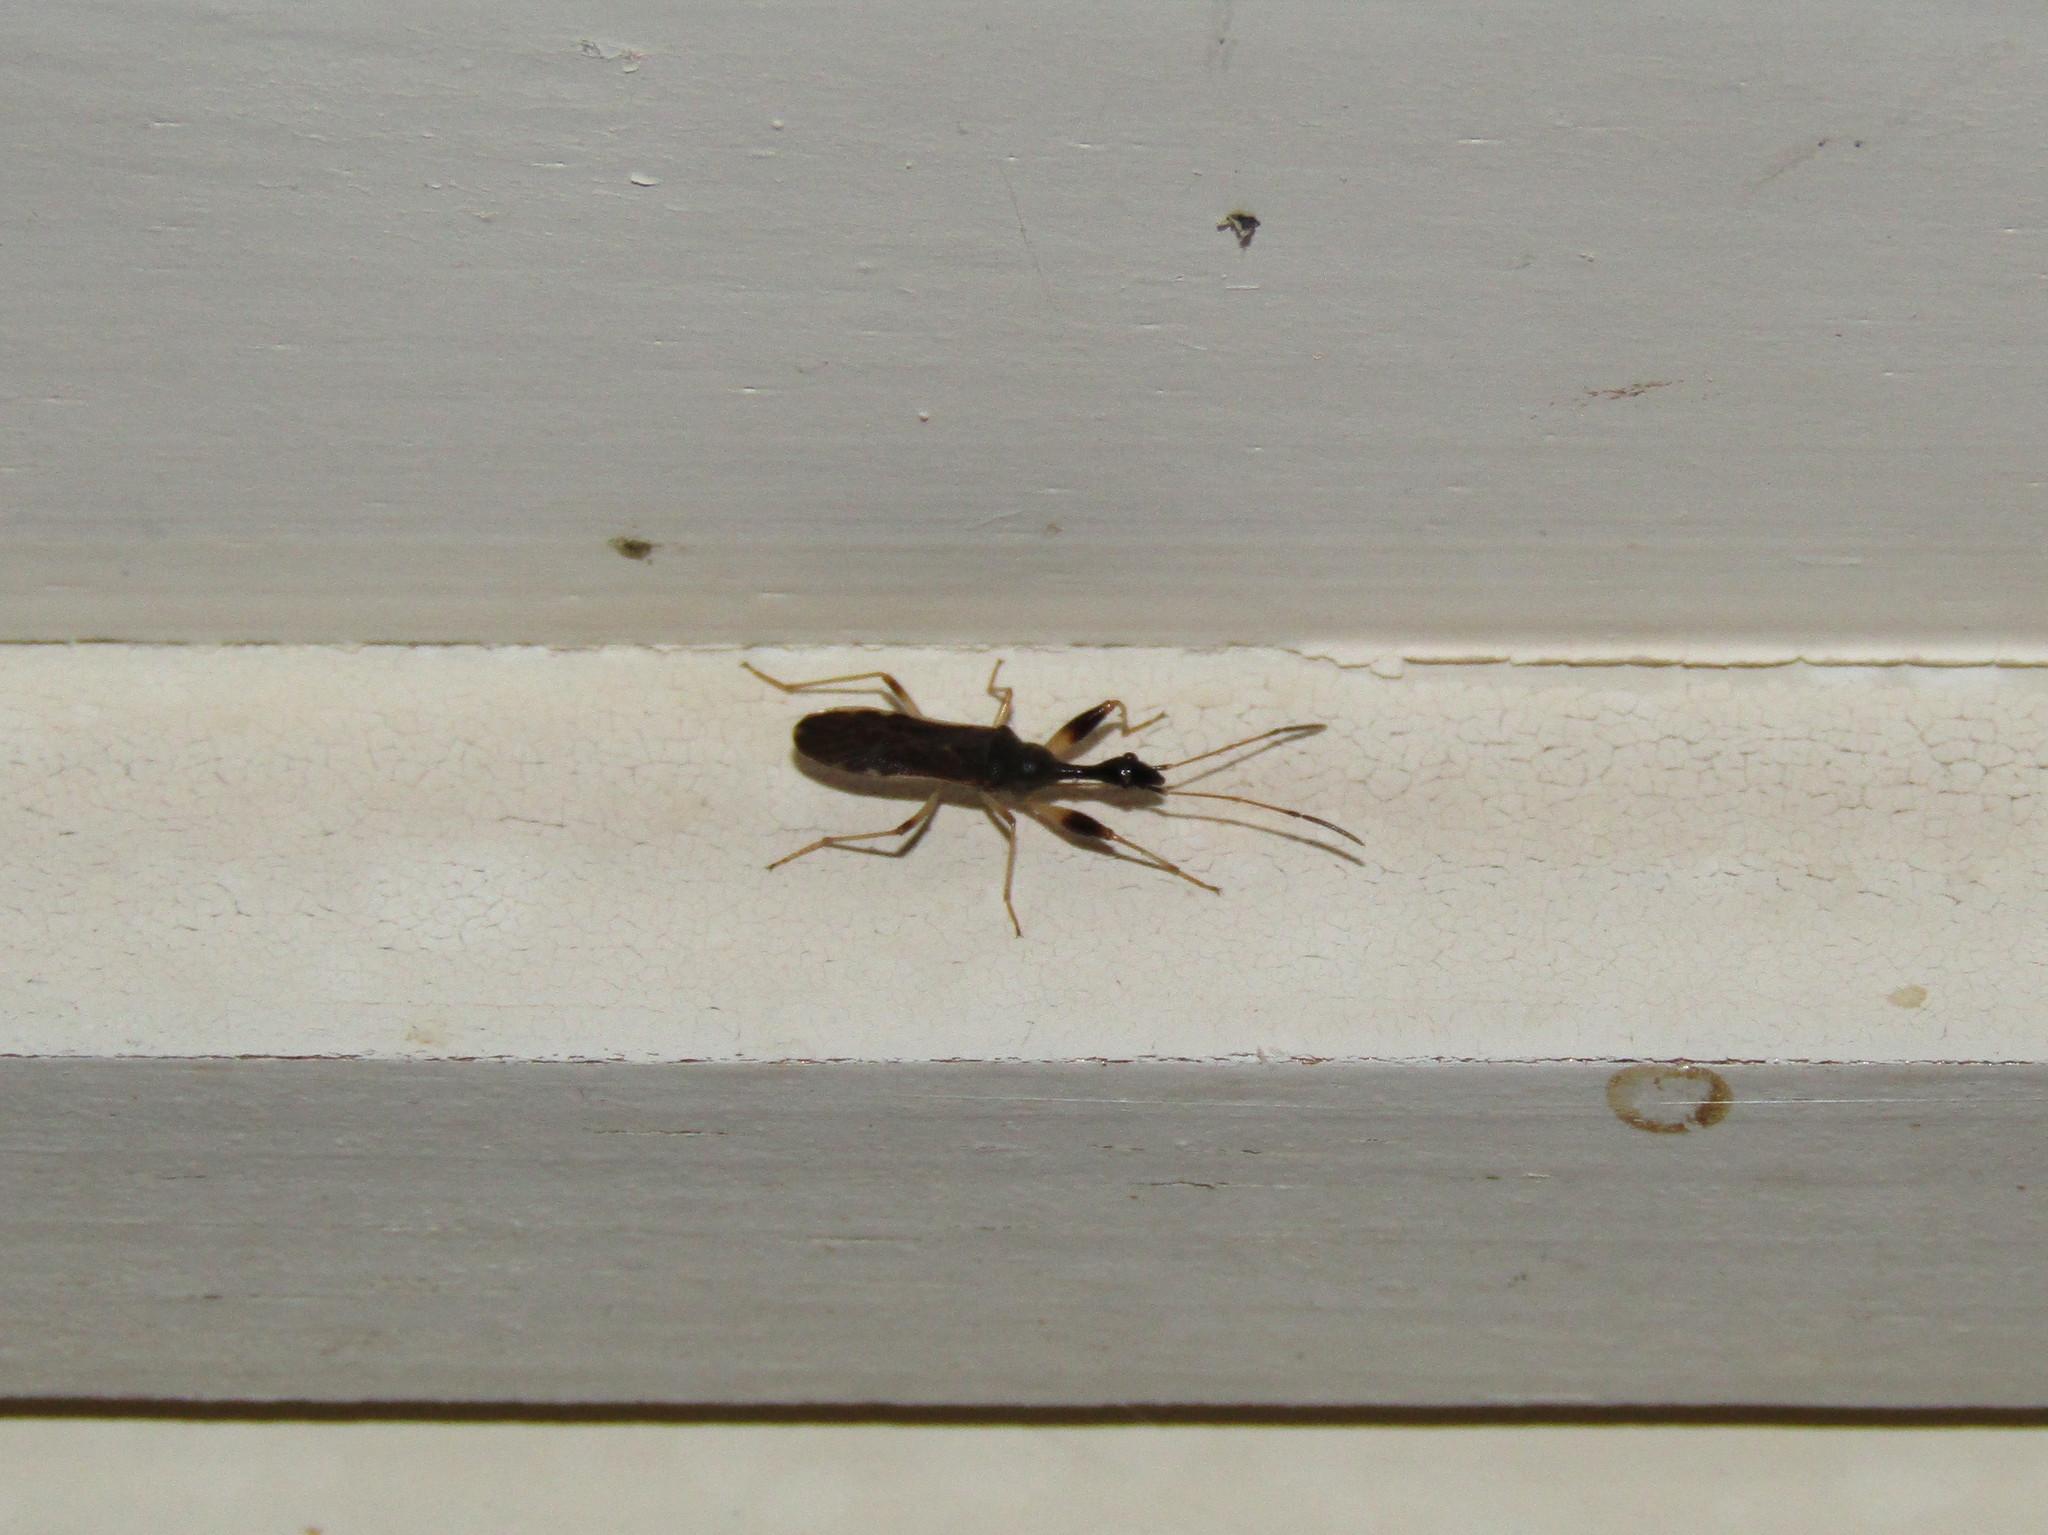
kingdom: Animalia
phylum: Arthropoda
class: Insecta
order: Hemiptera
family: Rhyparochromidae
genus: Myodocha
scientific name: Myodocha serripes
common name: Long-necked seed bug
